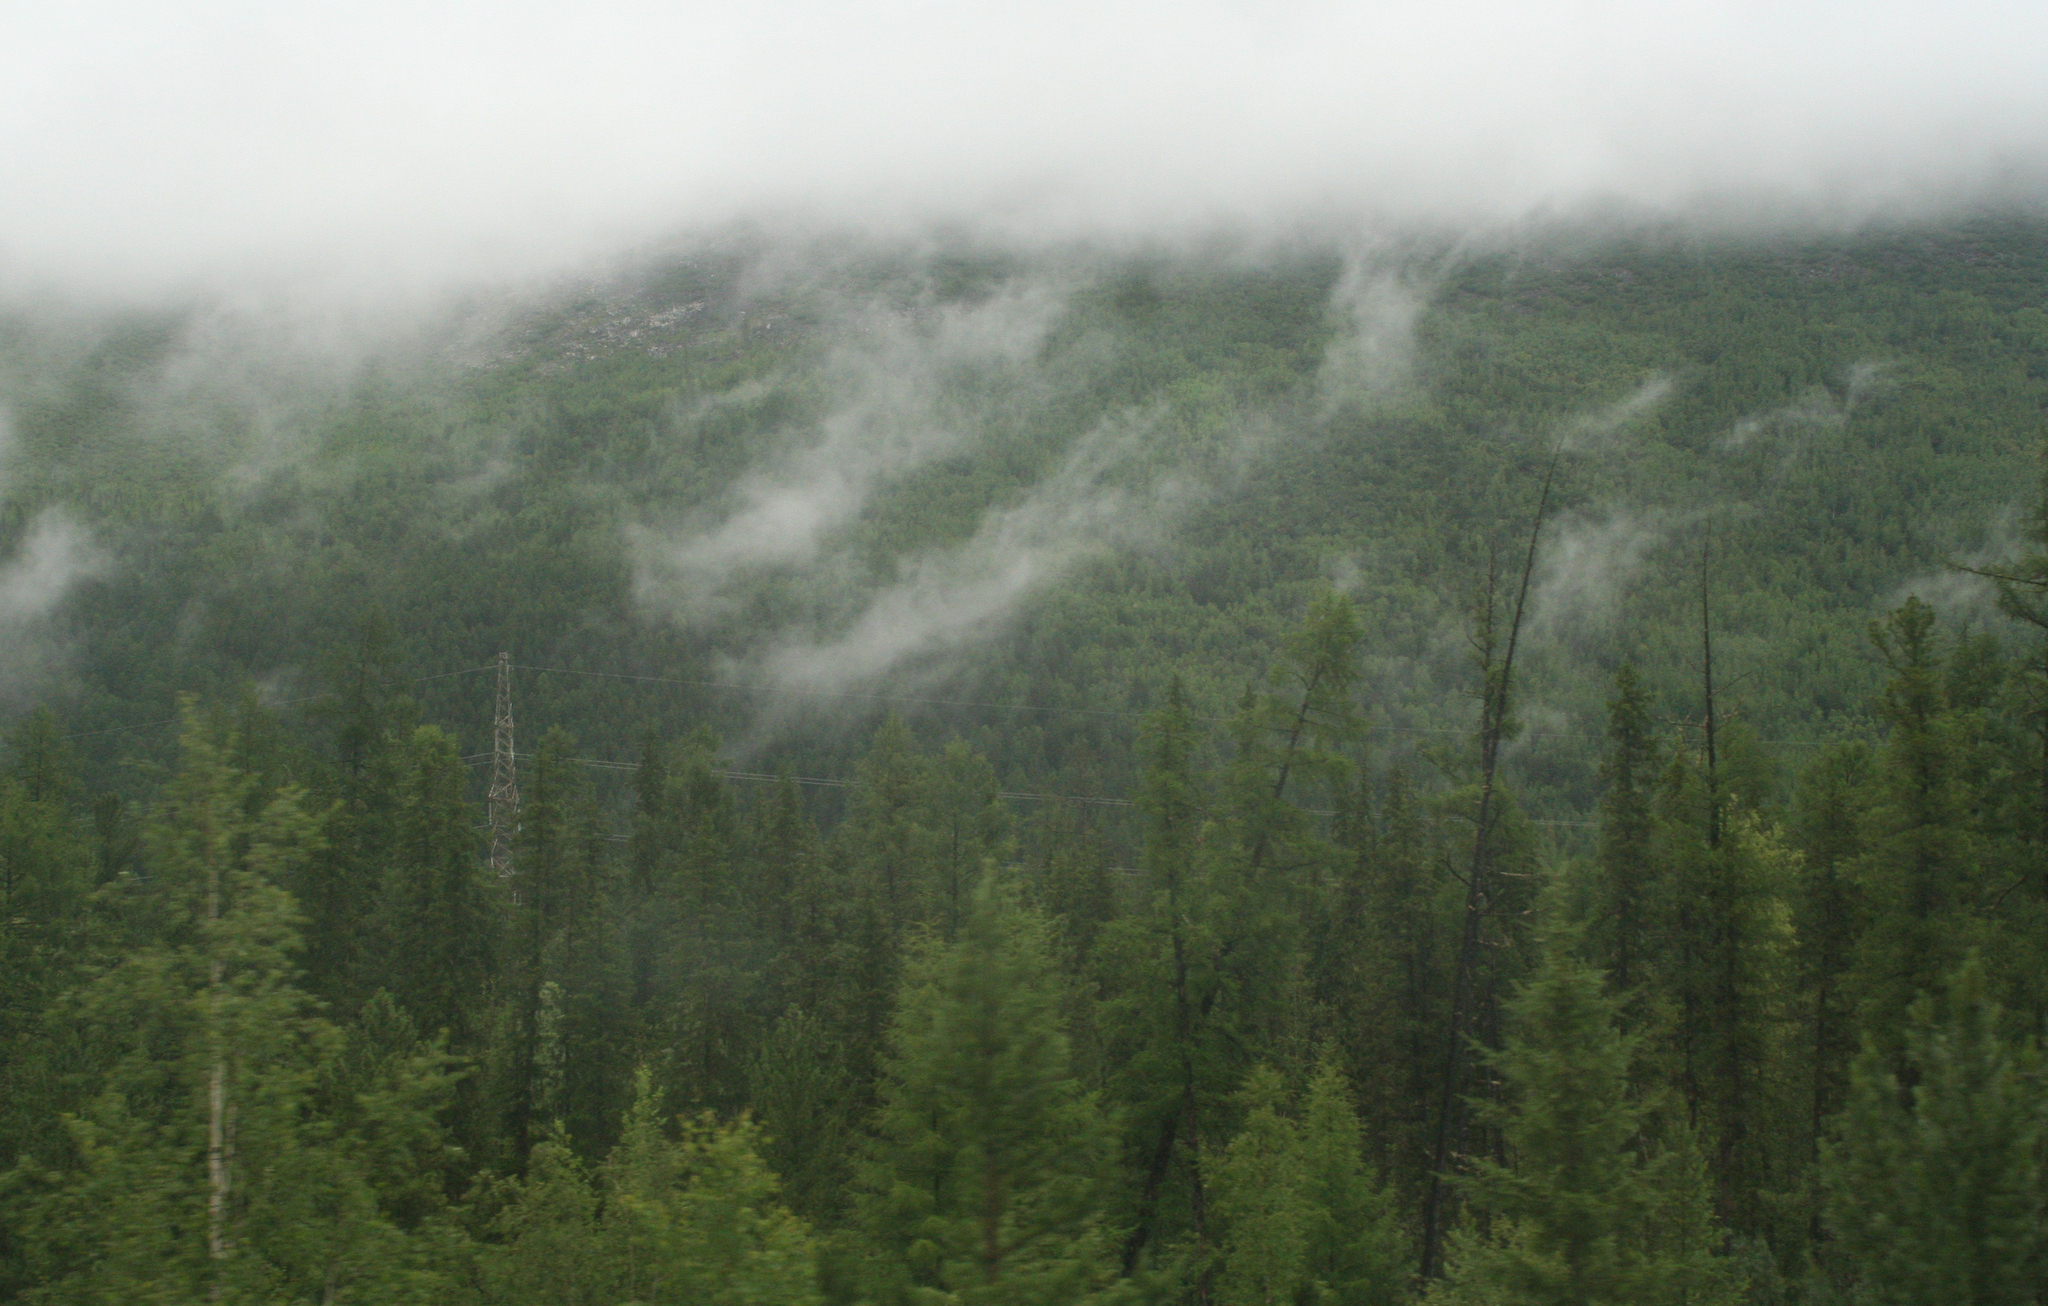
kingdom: Plantae
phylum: Tracheophyta
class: Pinopsida
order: Pinales
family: Pinaceae
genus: Picea
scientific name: Picea obovata
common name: Siberian spruce
